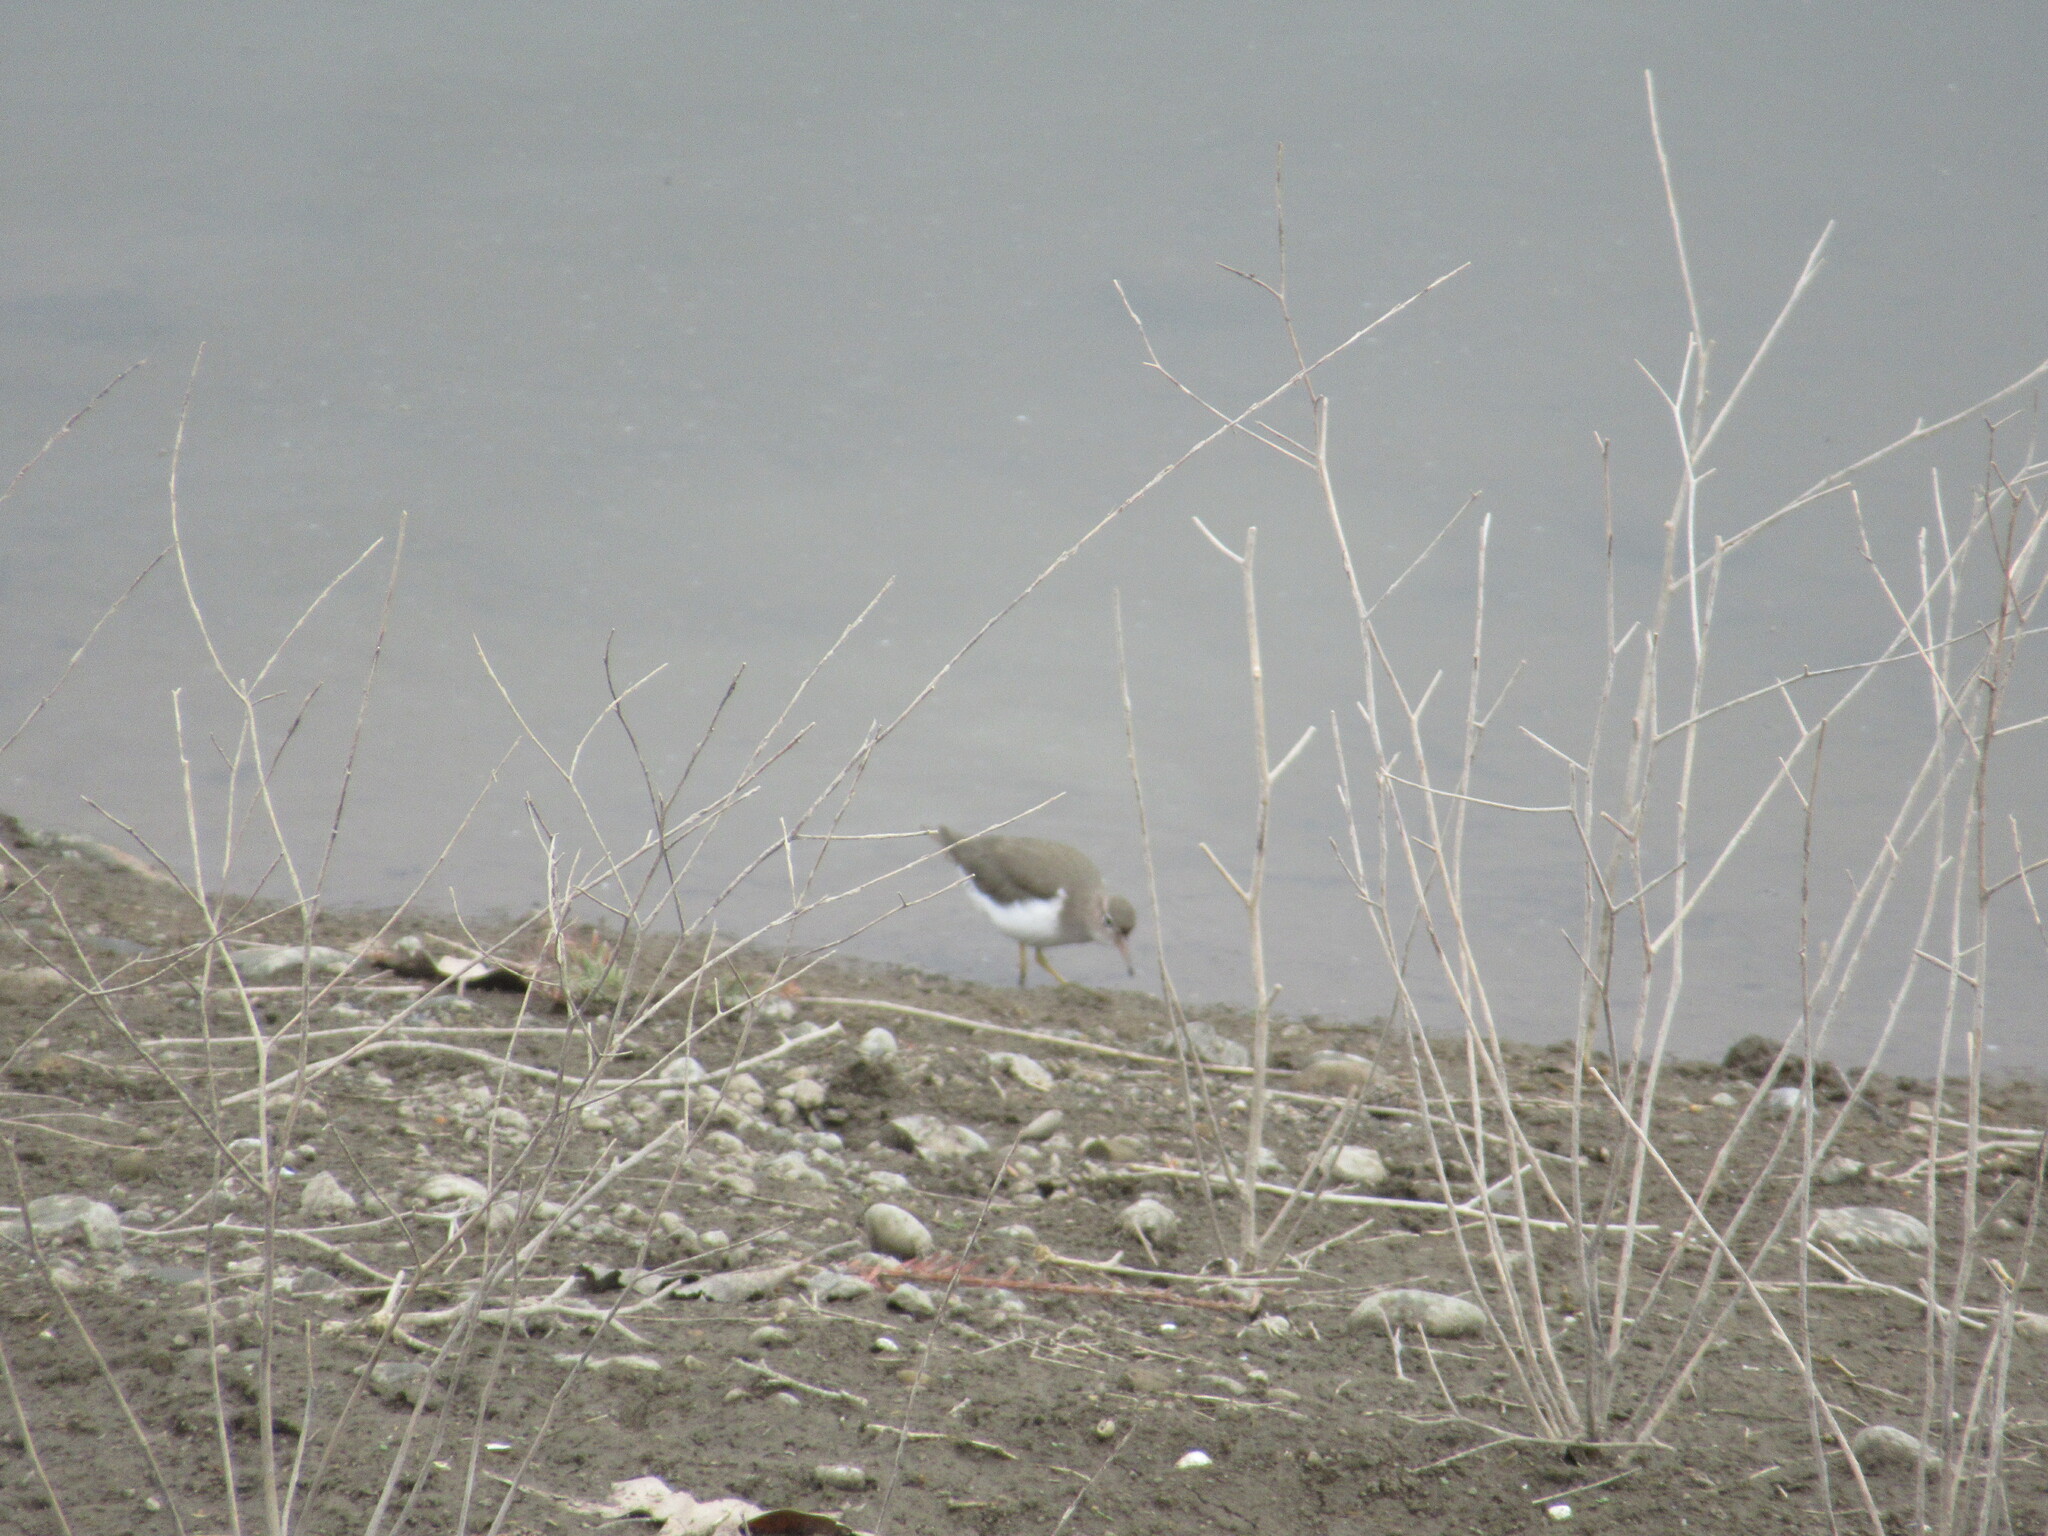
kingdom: Animalia
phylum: Chordata
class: Aves
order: Charadriiformes
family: Scolopacidae
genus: Actitis
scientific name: Actitis macularius
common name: Spotted sandpiper
